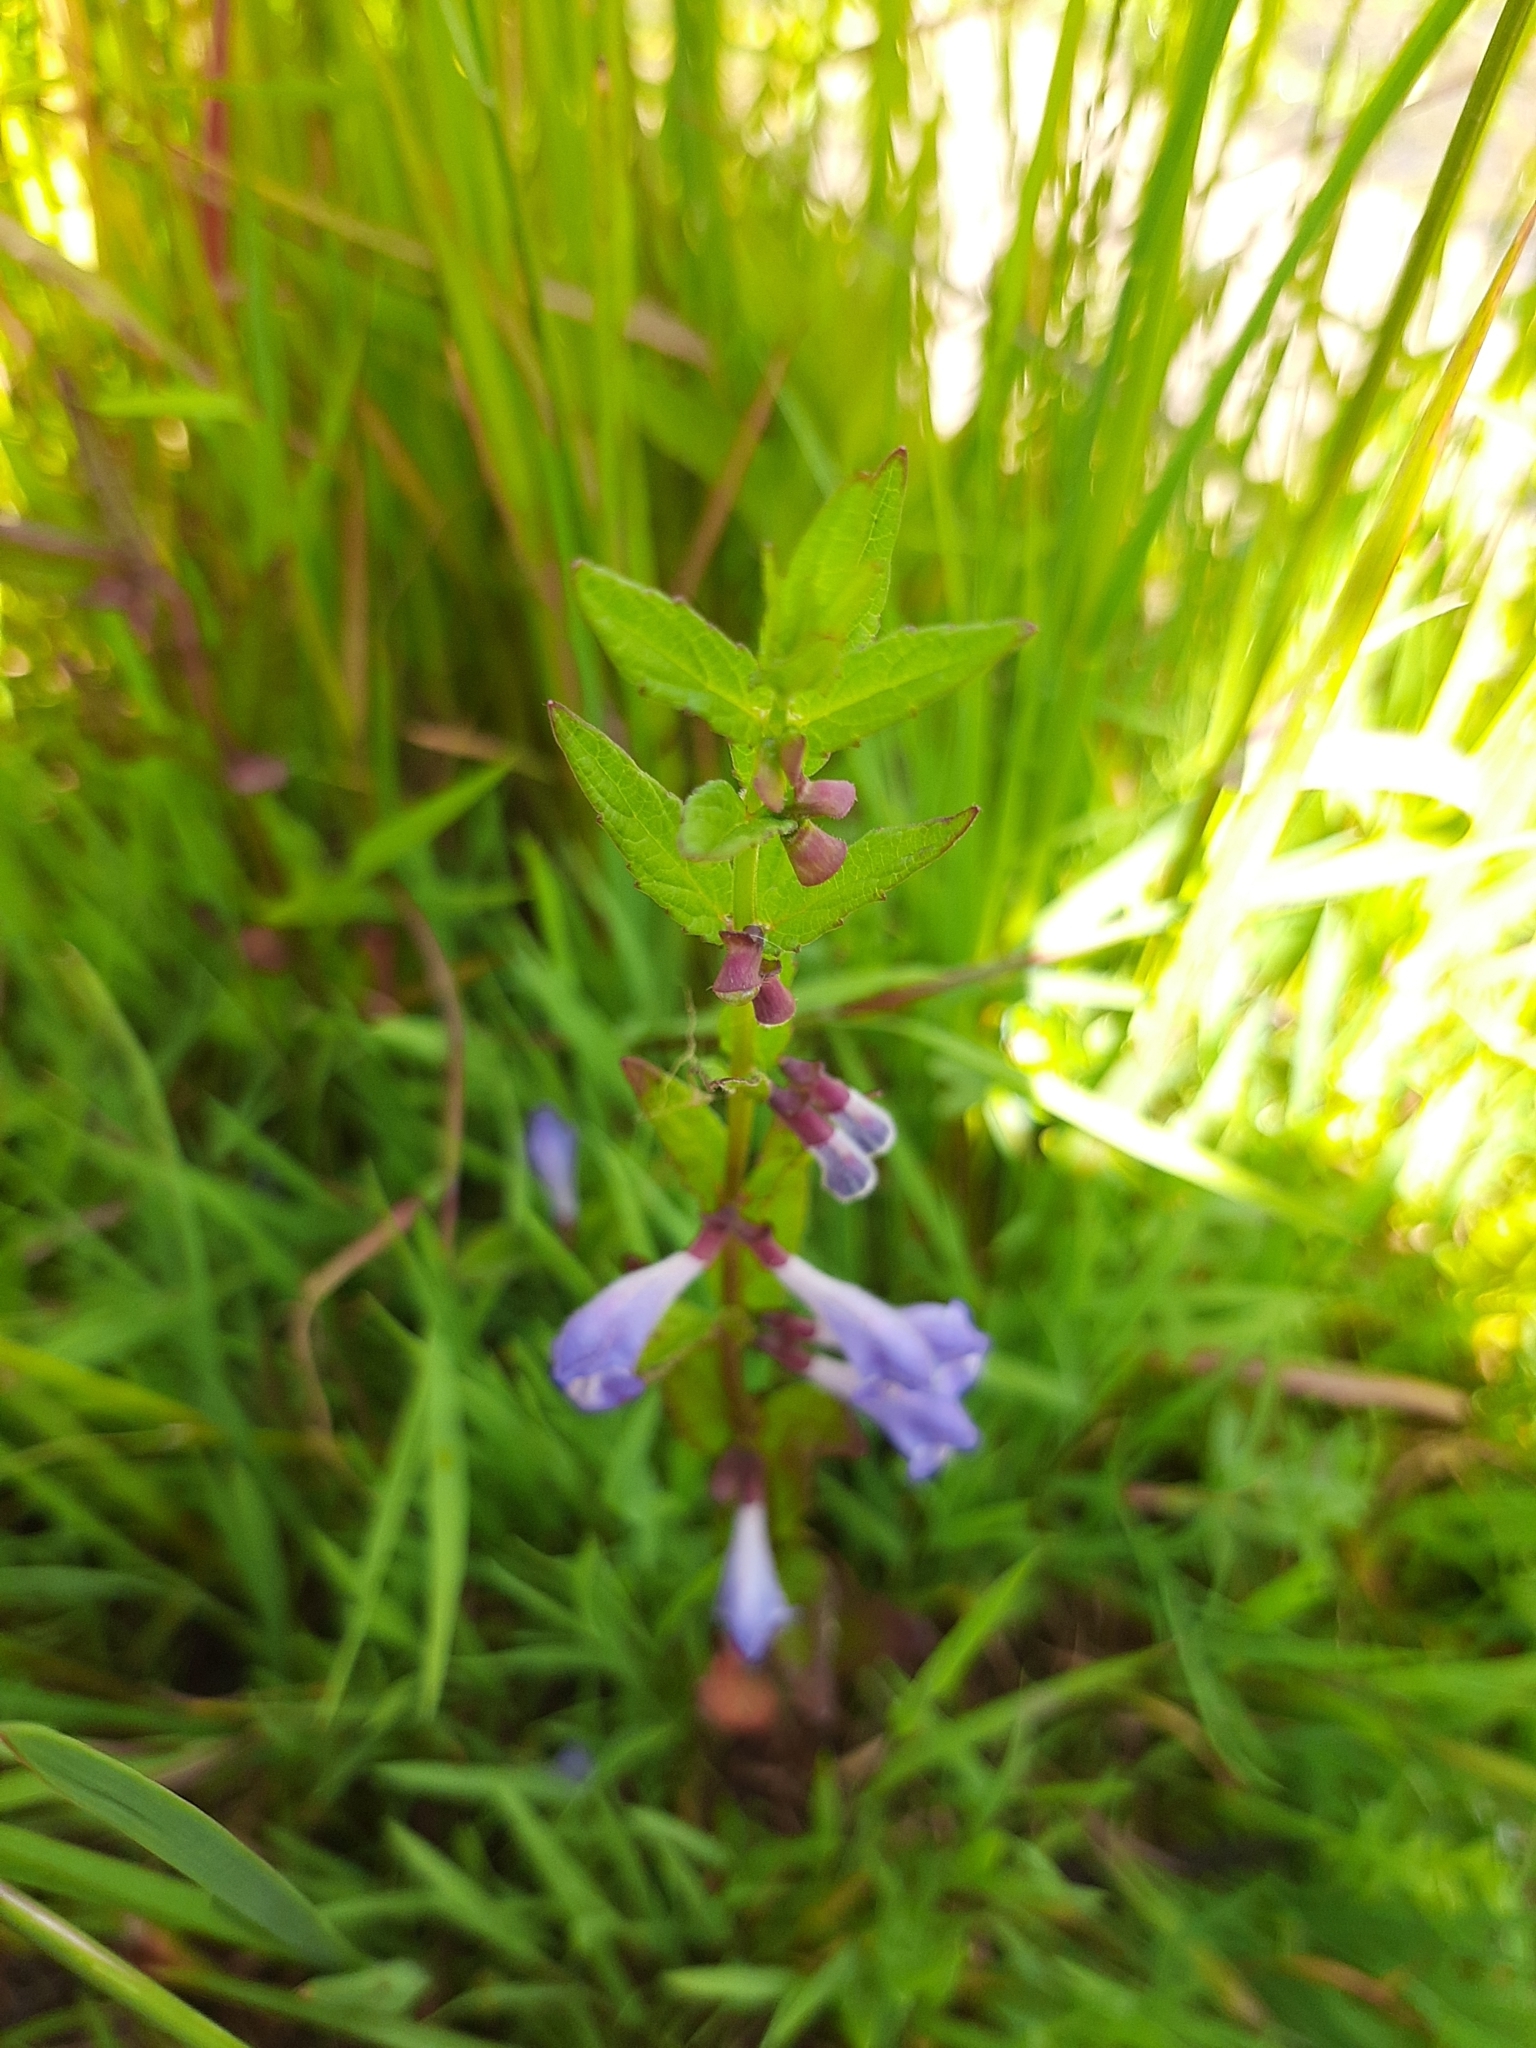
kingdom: Plantae
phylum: Tracheophyta
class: Magnoliopsida
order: Lamiales
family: Lamiaceae
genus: Scutellaria
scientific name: Scutellaria galericulata
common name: Skullcap
